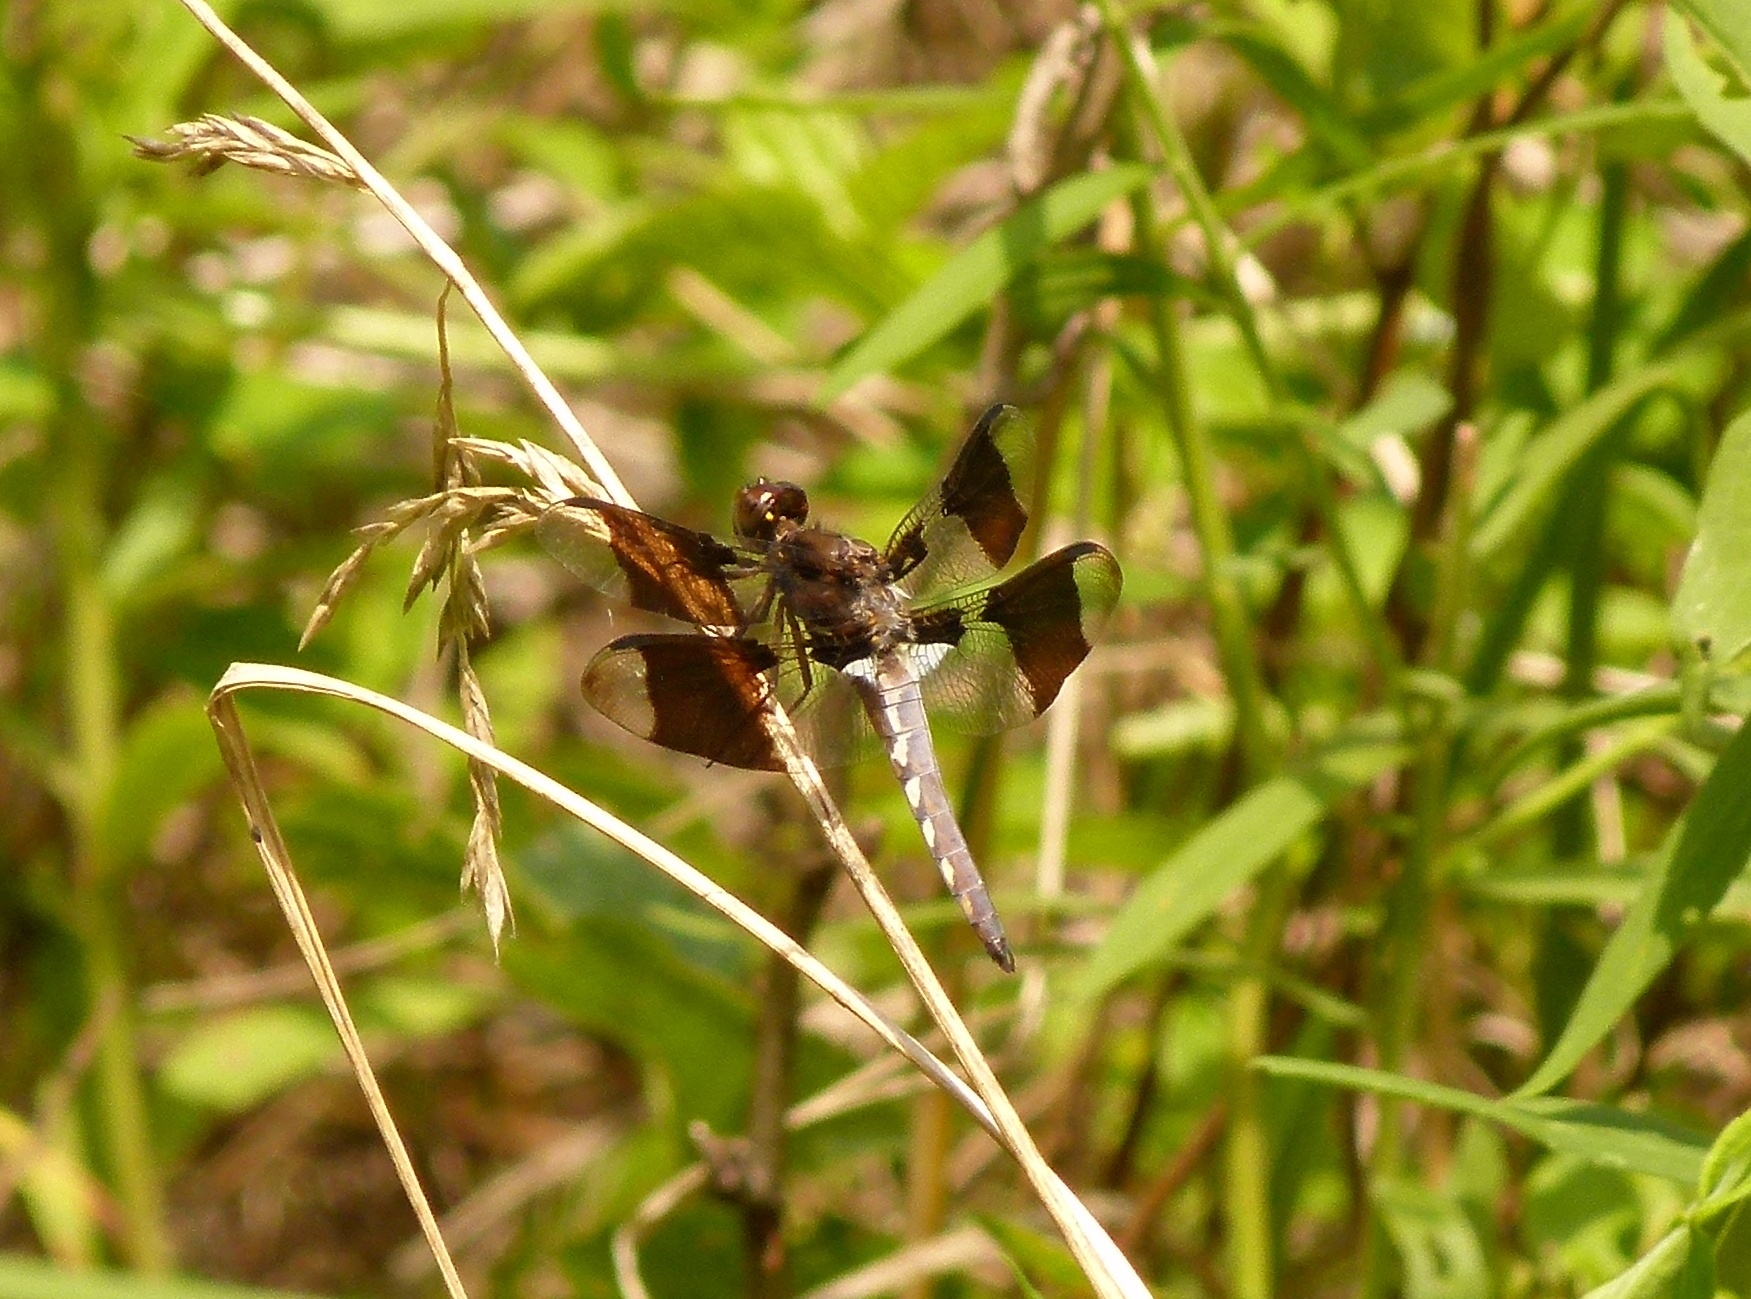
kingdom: Animalia
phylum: Arthropoda
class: Insecta
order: Odonata
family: Libellulidae
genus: Plathemis
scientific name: Plathemis lydia
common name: Common whitetail
